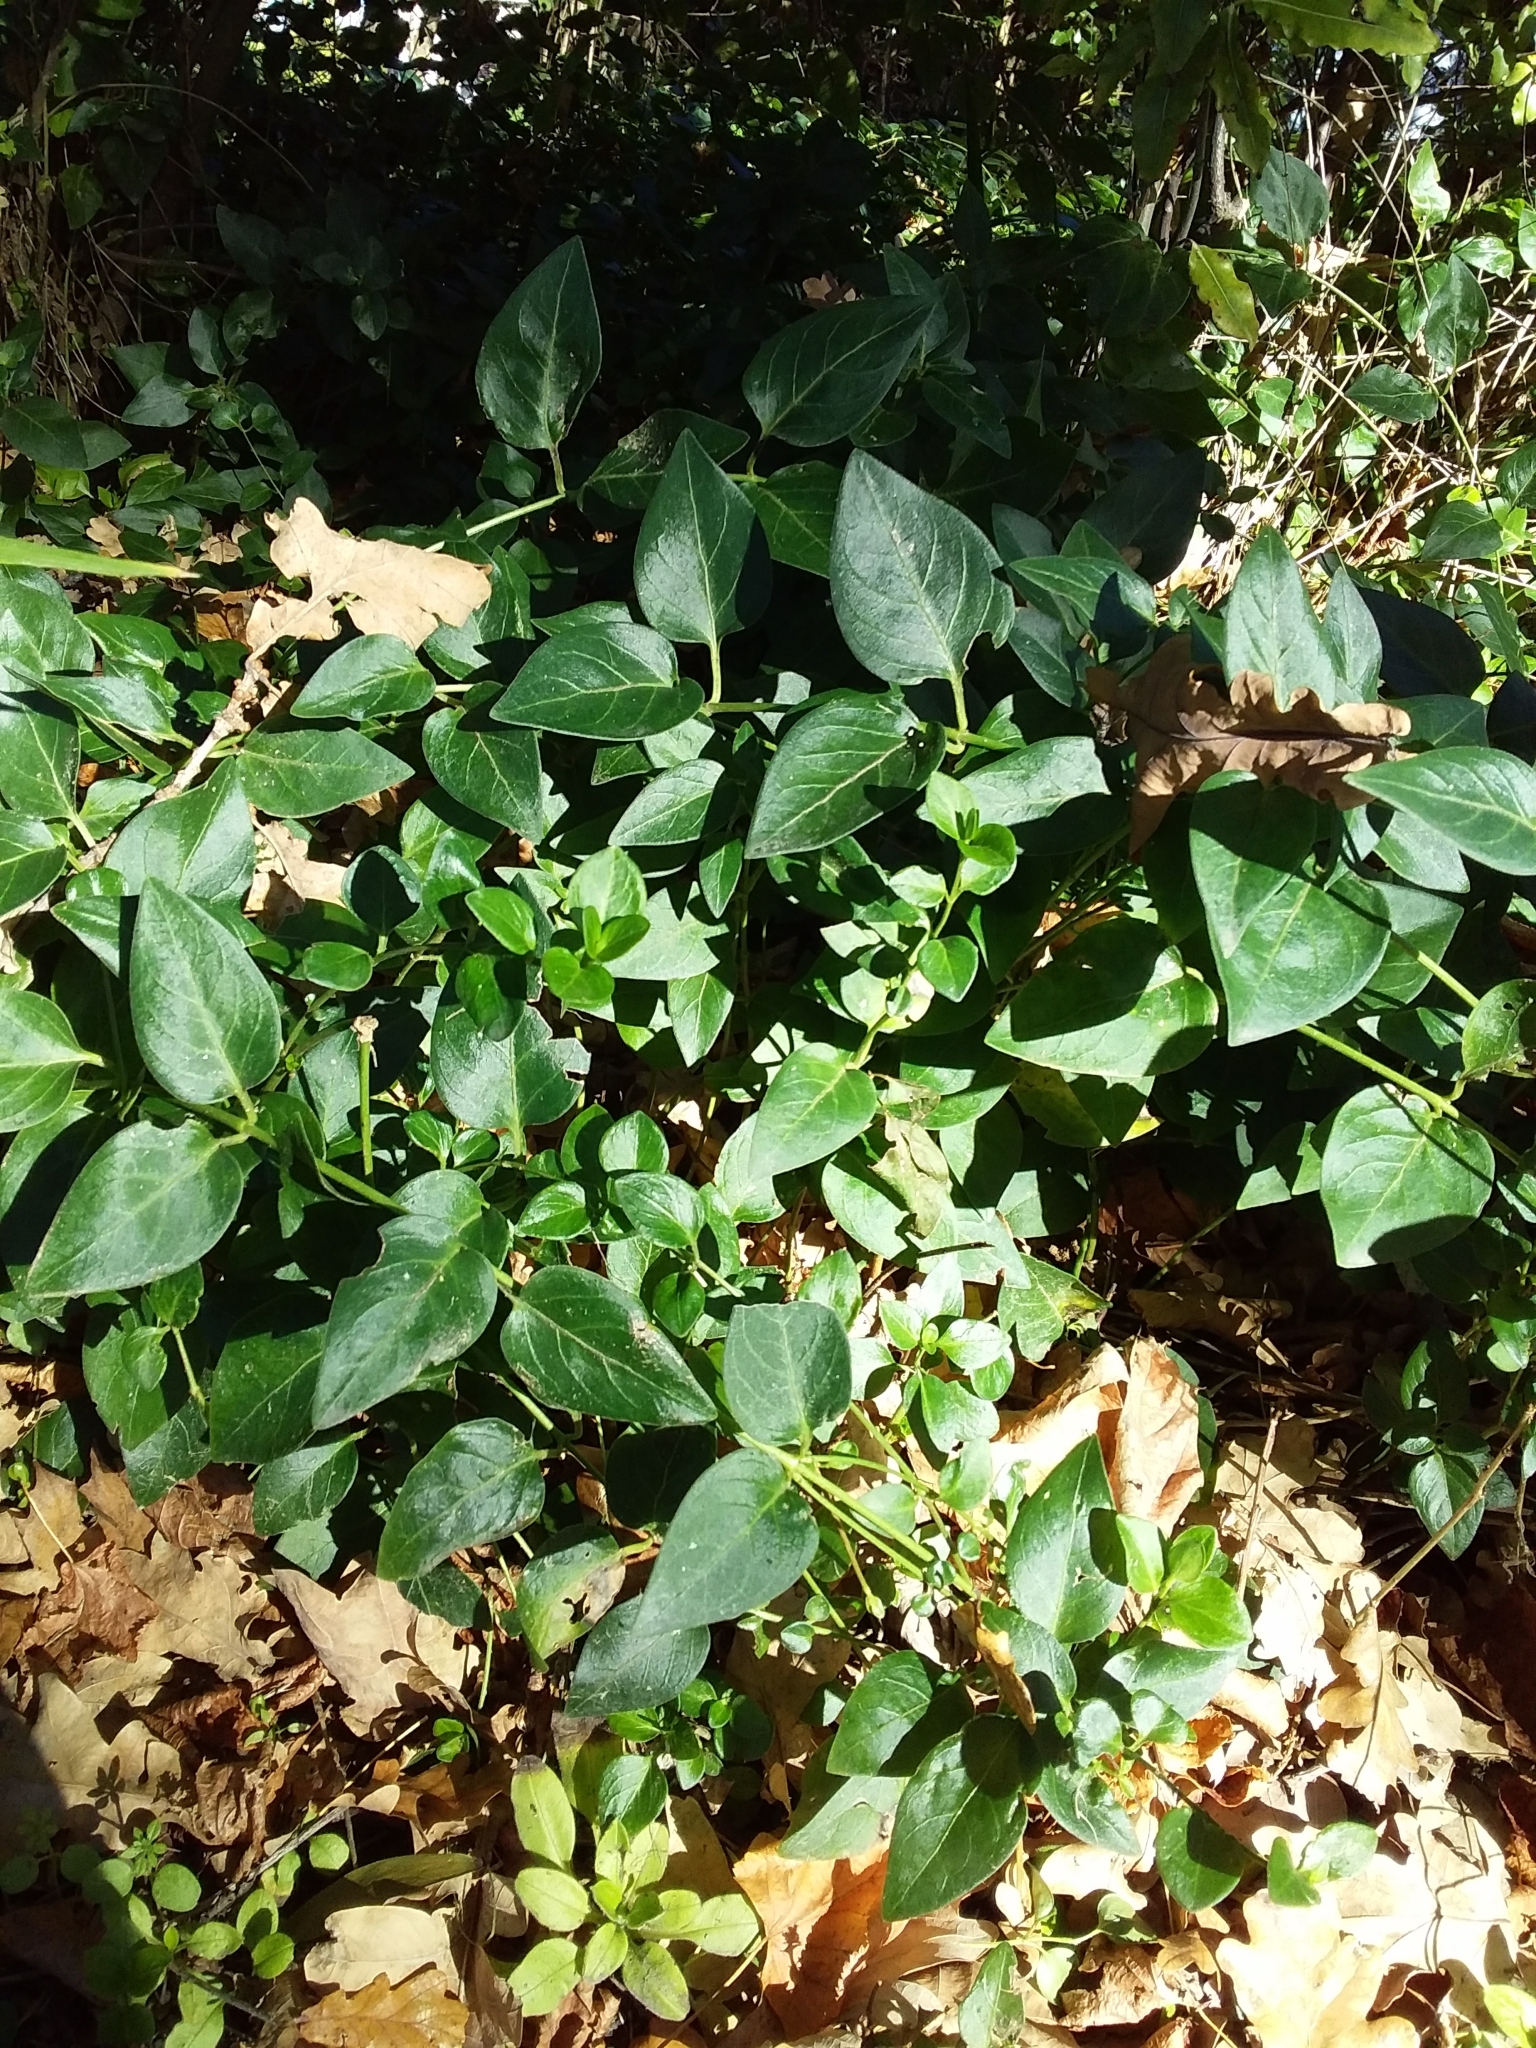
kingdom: Plantae
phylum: Tracheophyta
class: Magnoliopsida
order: Gentianales
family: Apocynaceae
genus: Vinca
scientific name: Vinca major
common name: Greater periwinkle
